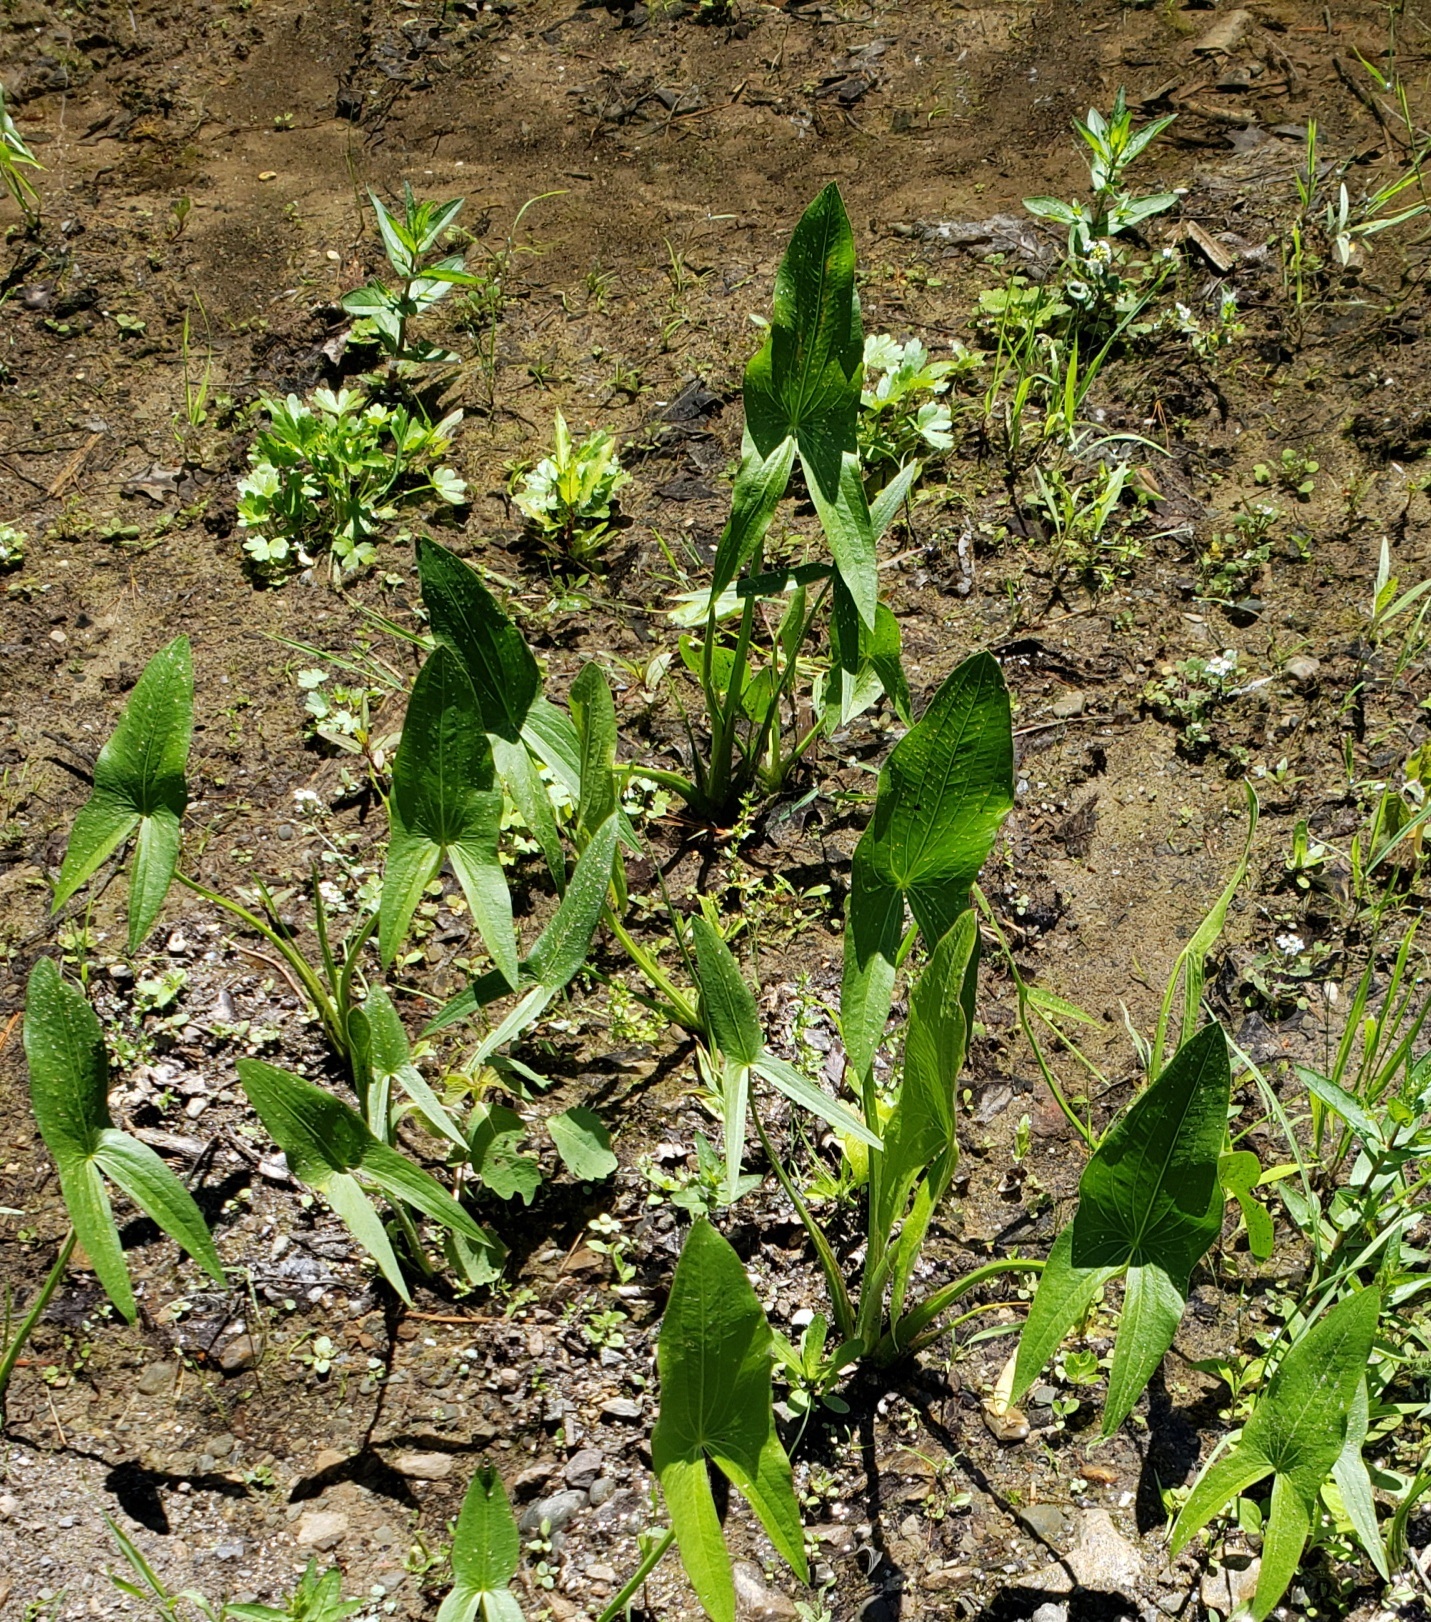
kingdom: Plantae
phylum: Tracheophyta
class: Liliopsida
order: Alismatales
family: Alismataceae
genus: Sagittaria
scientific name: Sagittaria latifolia
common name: Duck-potato
